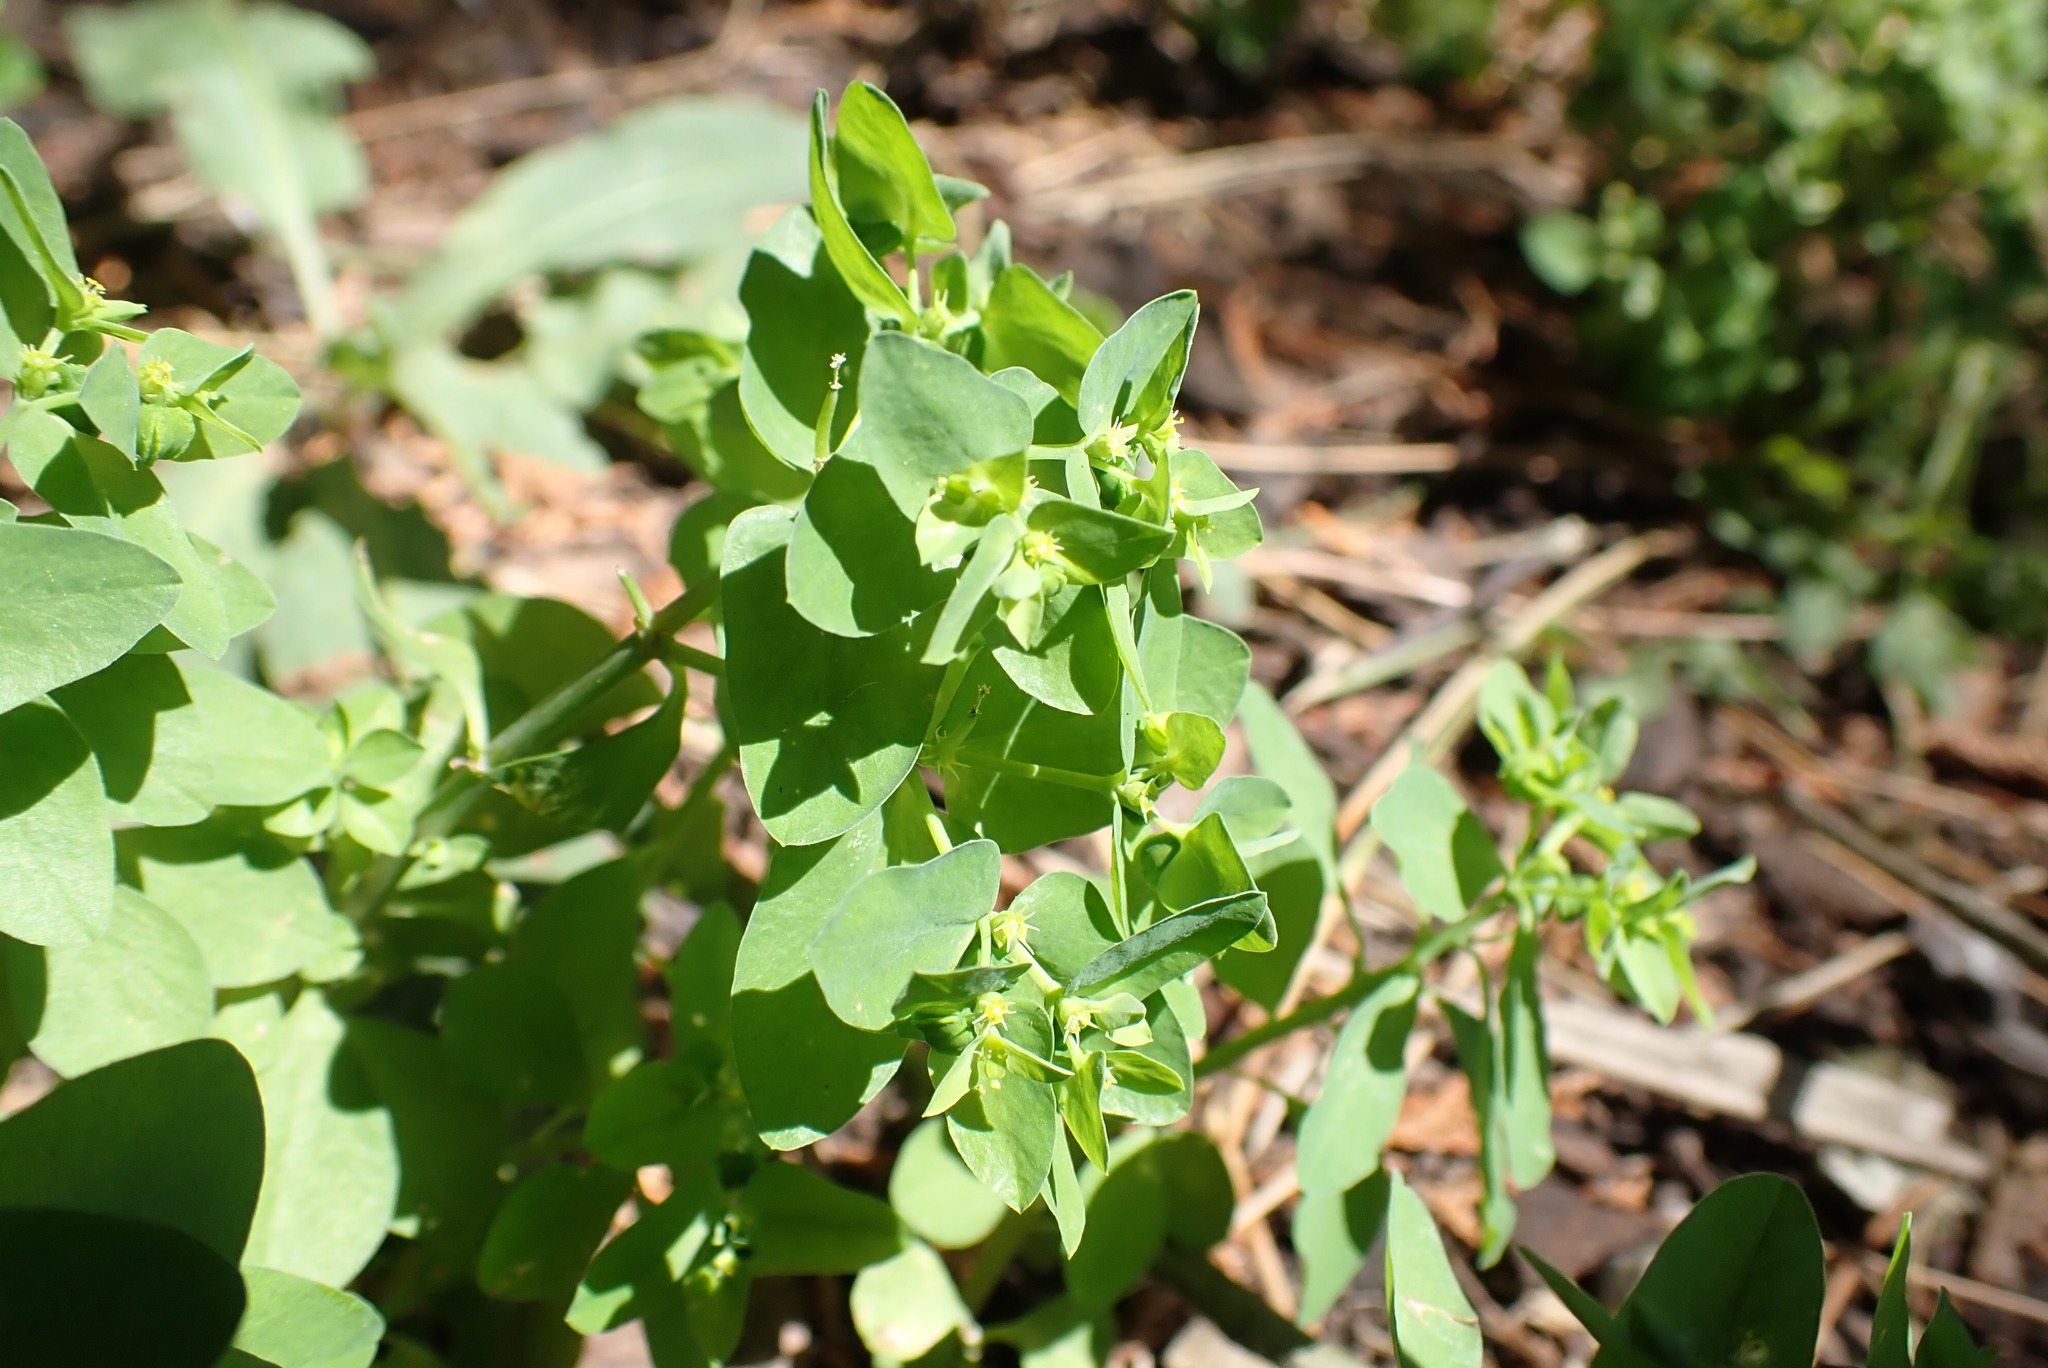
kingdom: Plantae
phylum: Tracheophyta
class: Magnoliopsida
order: Malpighiales
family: Euphorbiaceae
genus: Euphorbia
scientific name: Euphorbia peplus
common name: Petty spurge
